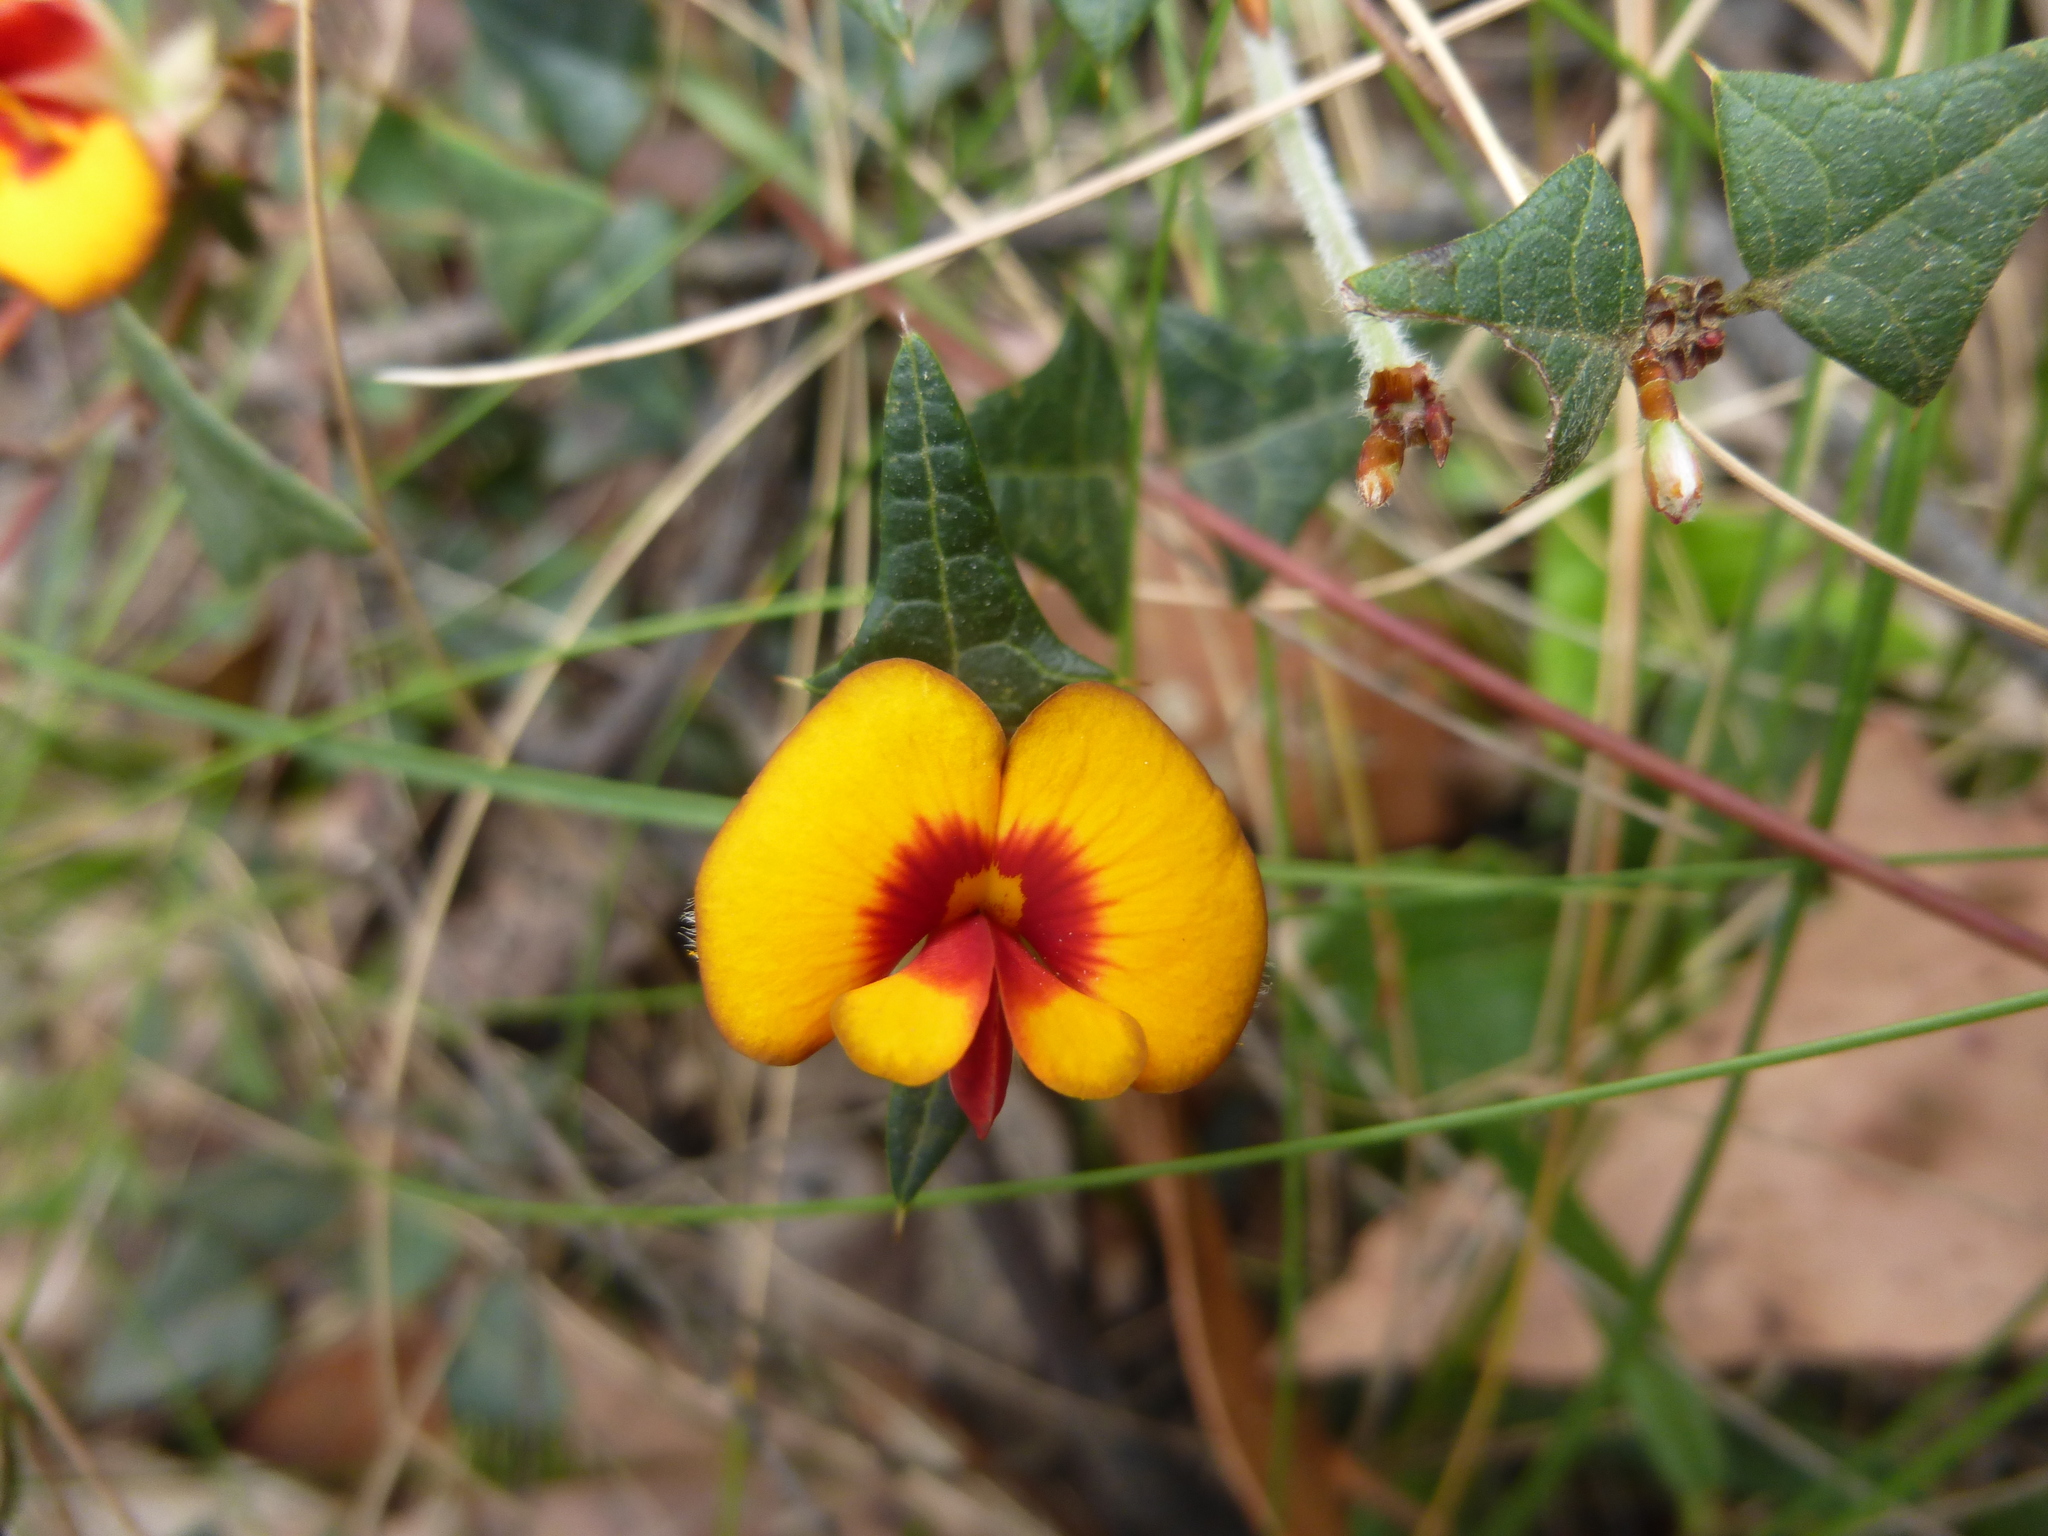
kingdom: Plantae
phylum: Tracheophyta
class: Magnoliopsida
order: Fabales
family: Fabaceae
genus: Platylobium
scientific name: Platylobium obtusangulum
